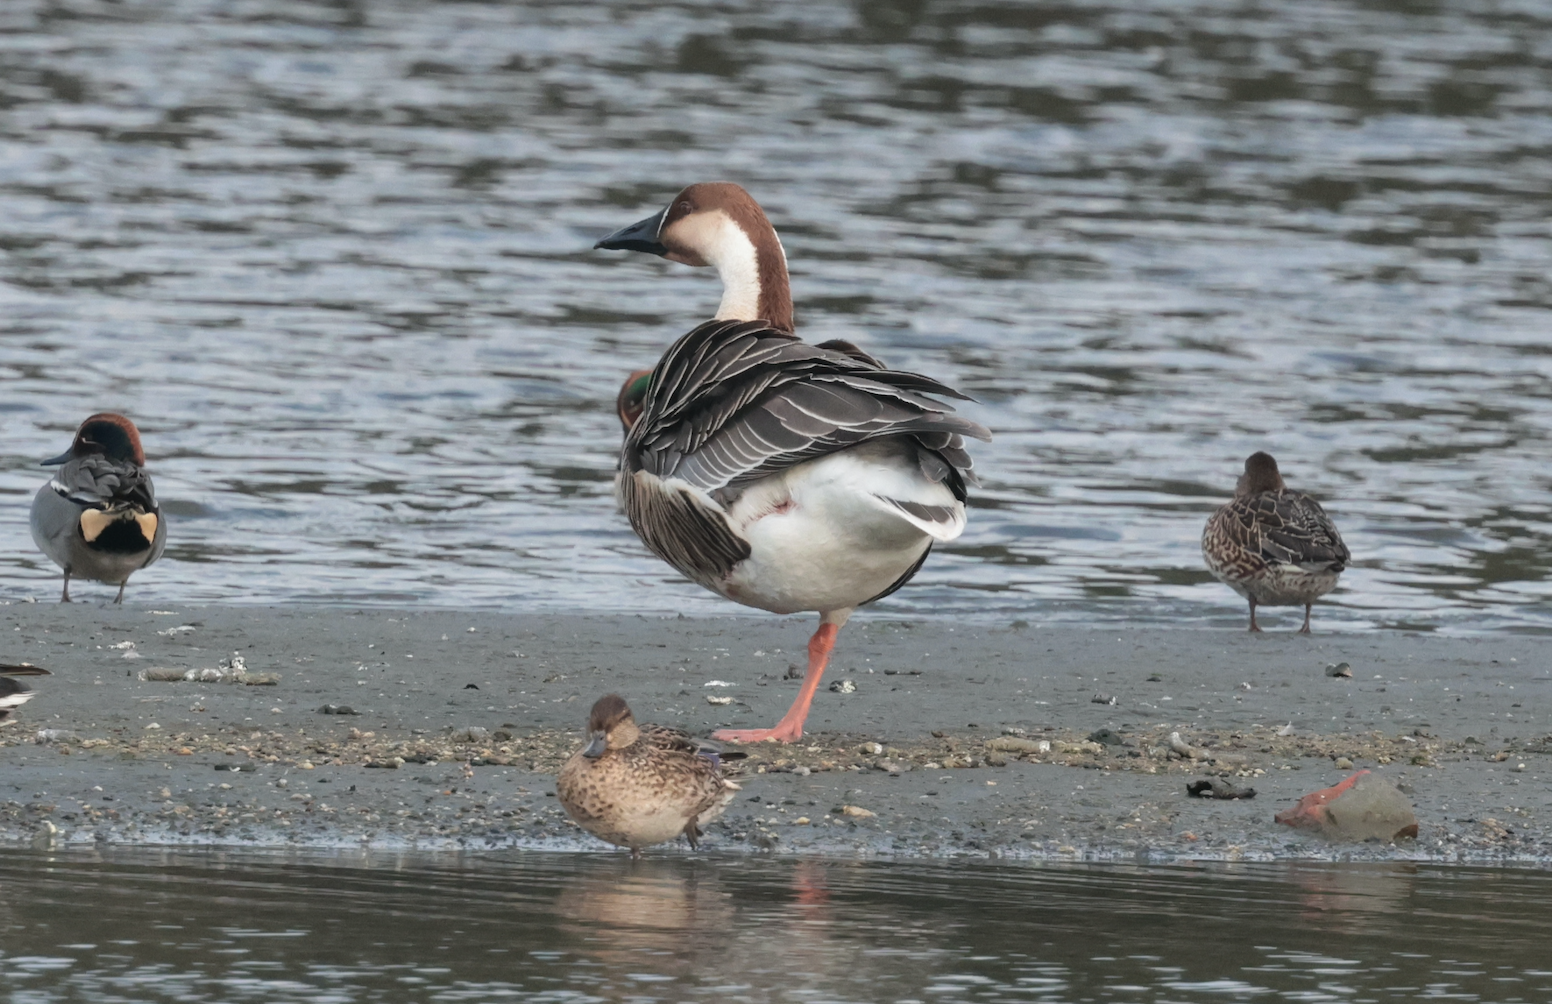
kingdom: Animalia
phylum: Chordata
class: Aves
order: Anseriformes
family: Anatidae
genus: Anser
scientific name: Anser cygnoides
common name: Swan goose
